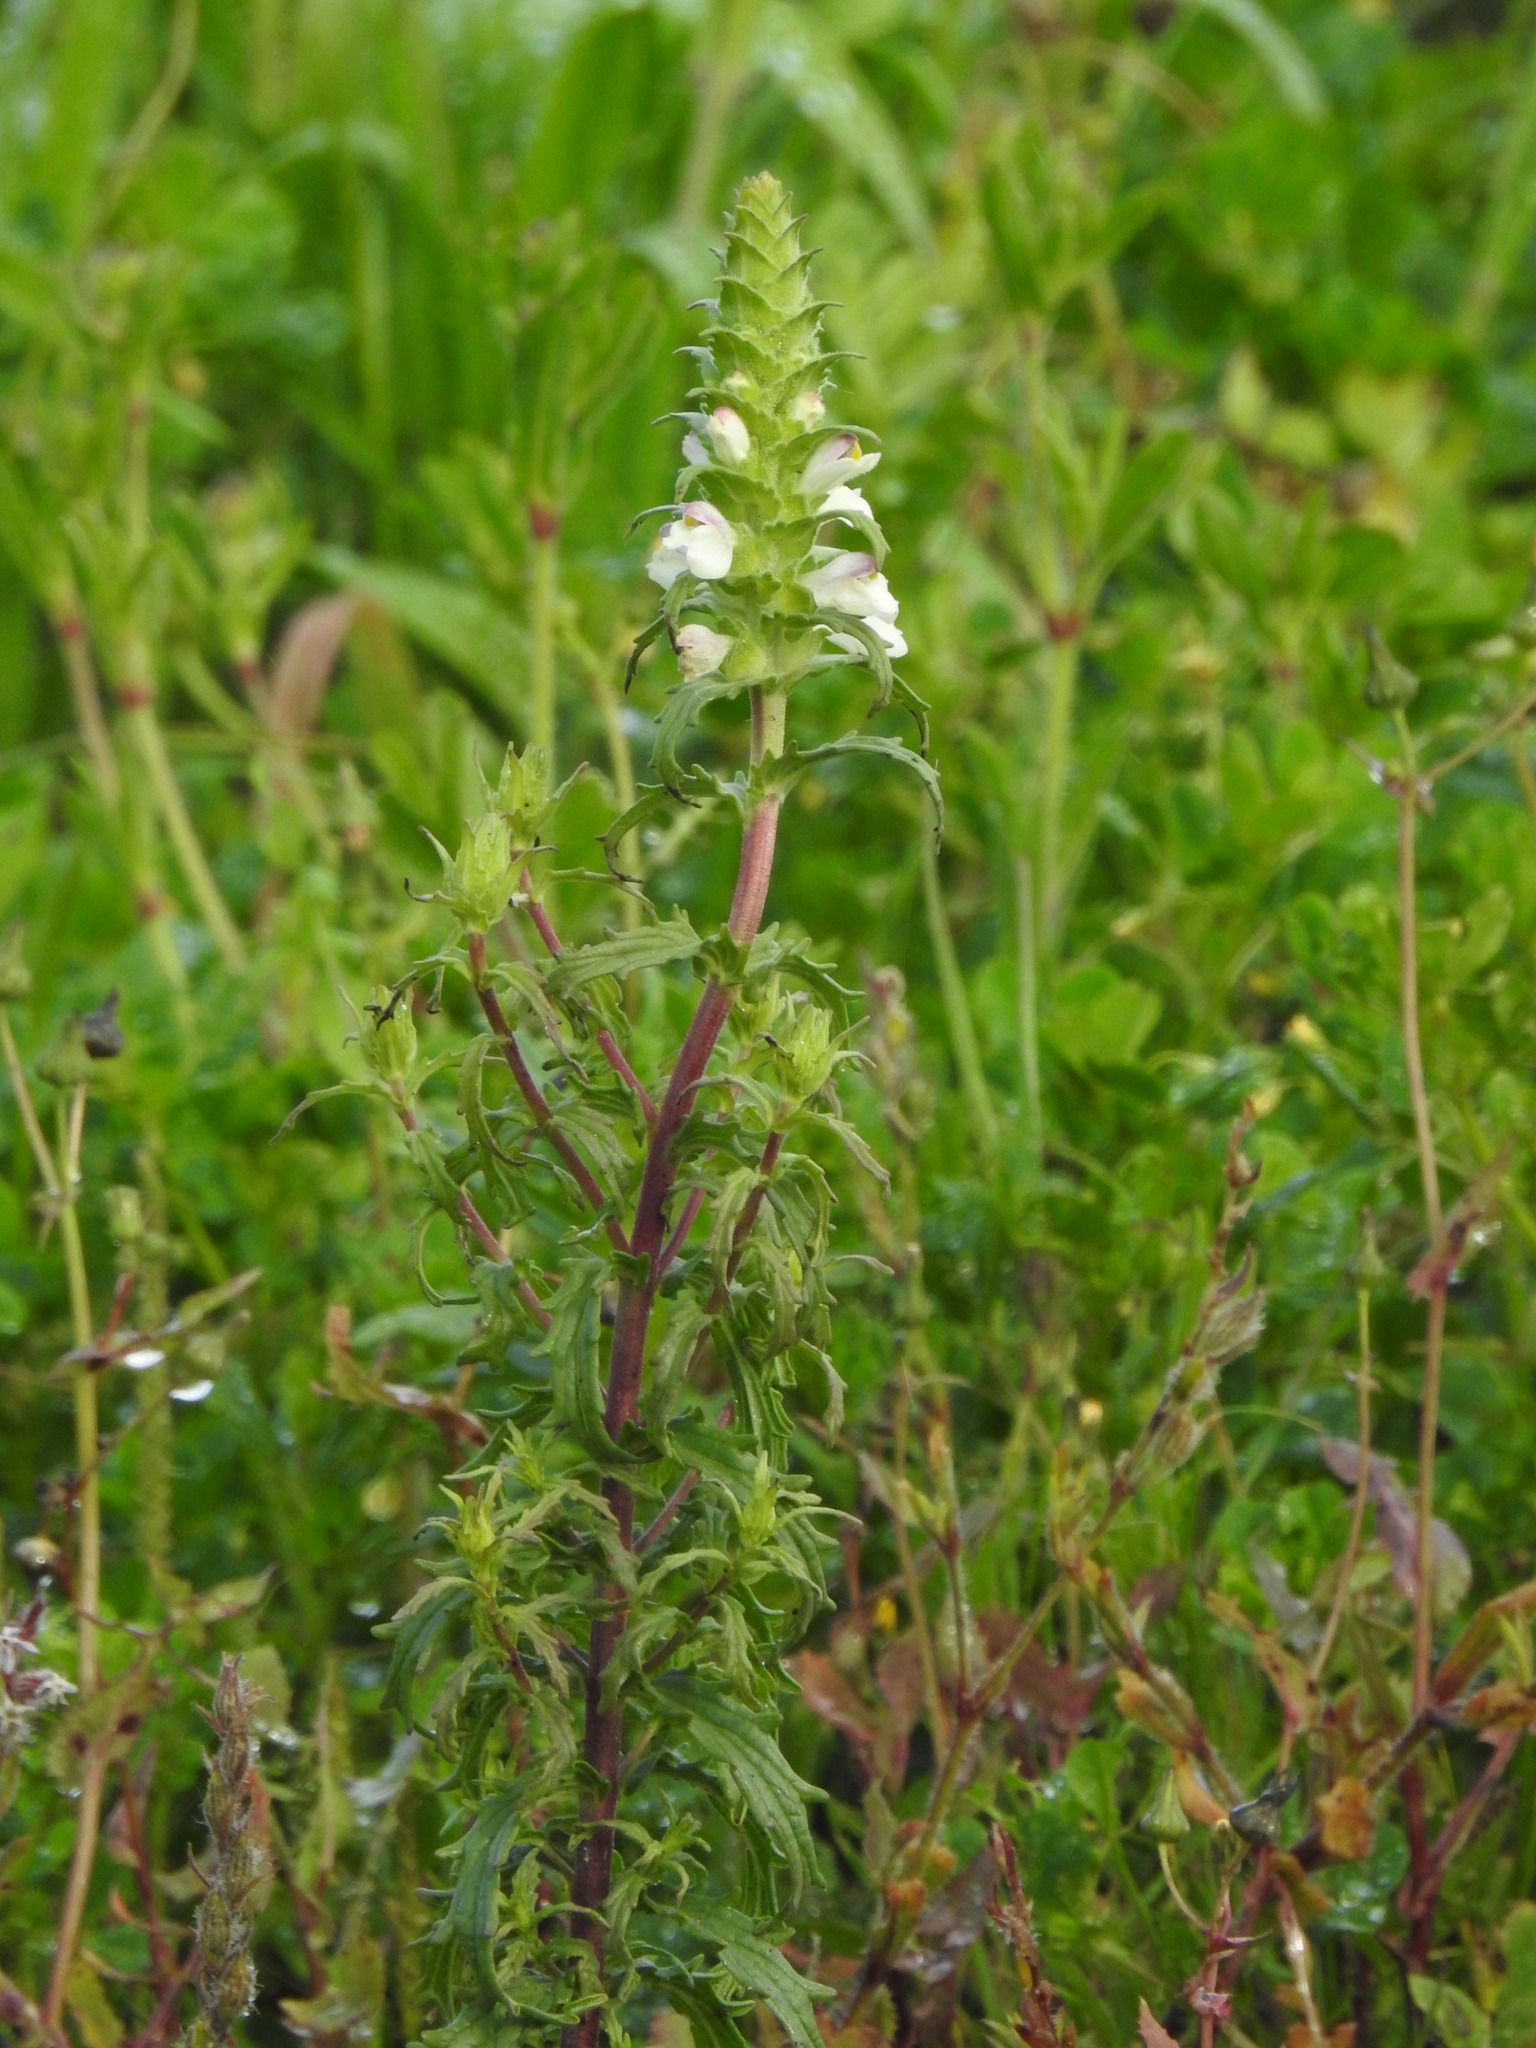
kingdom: Plantae
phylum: Tracheophyta
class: Magnoliopsida
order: Lamiales
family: Orobanchaceae
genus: Bellardia
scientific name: Bellardia trixago
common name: Mediterranean lineseed
